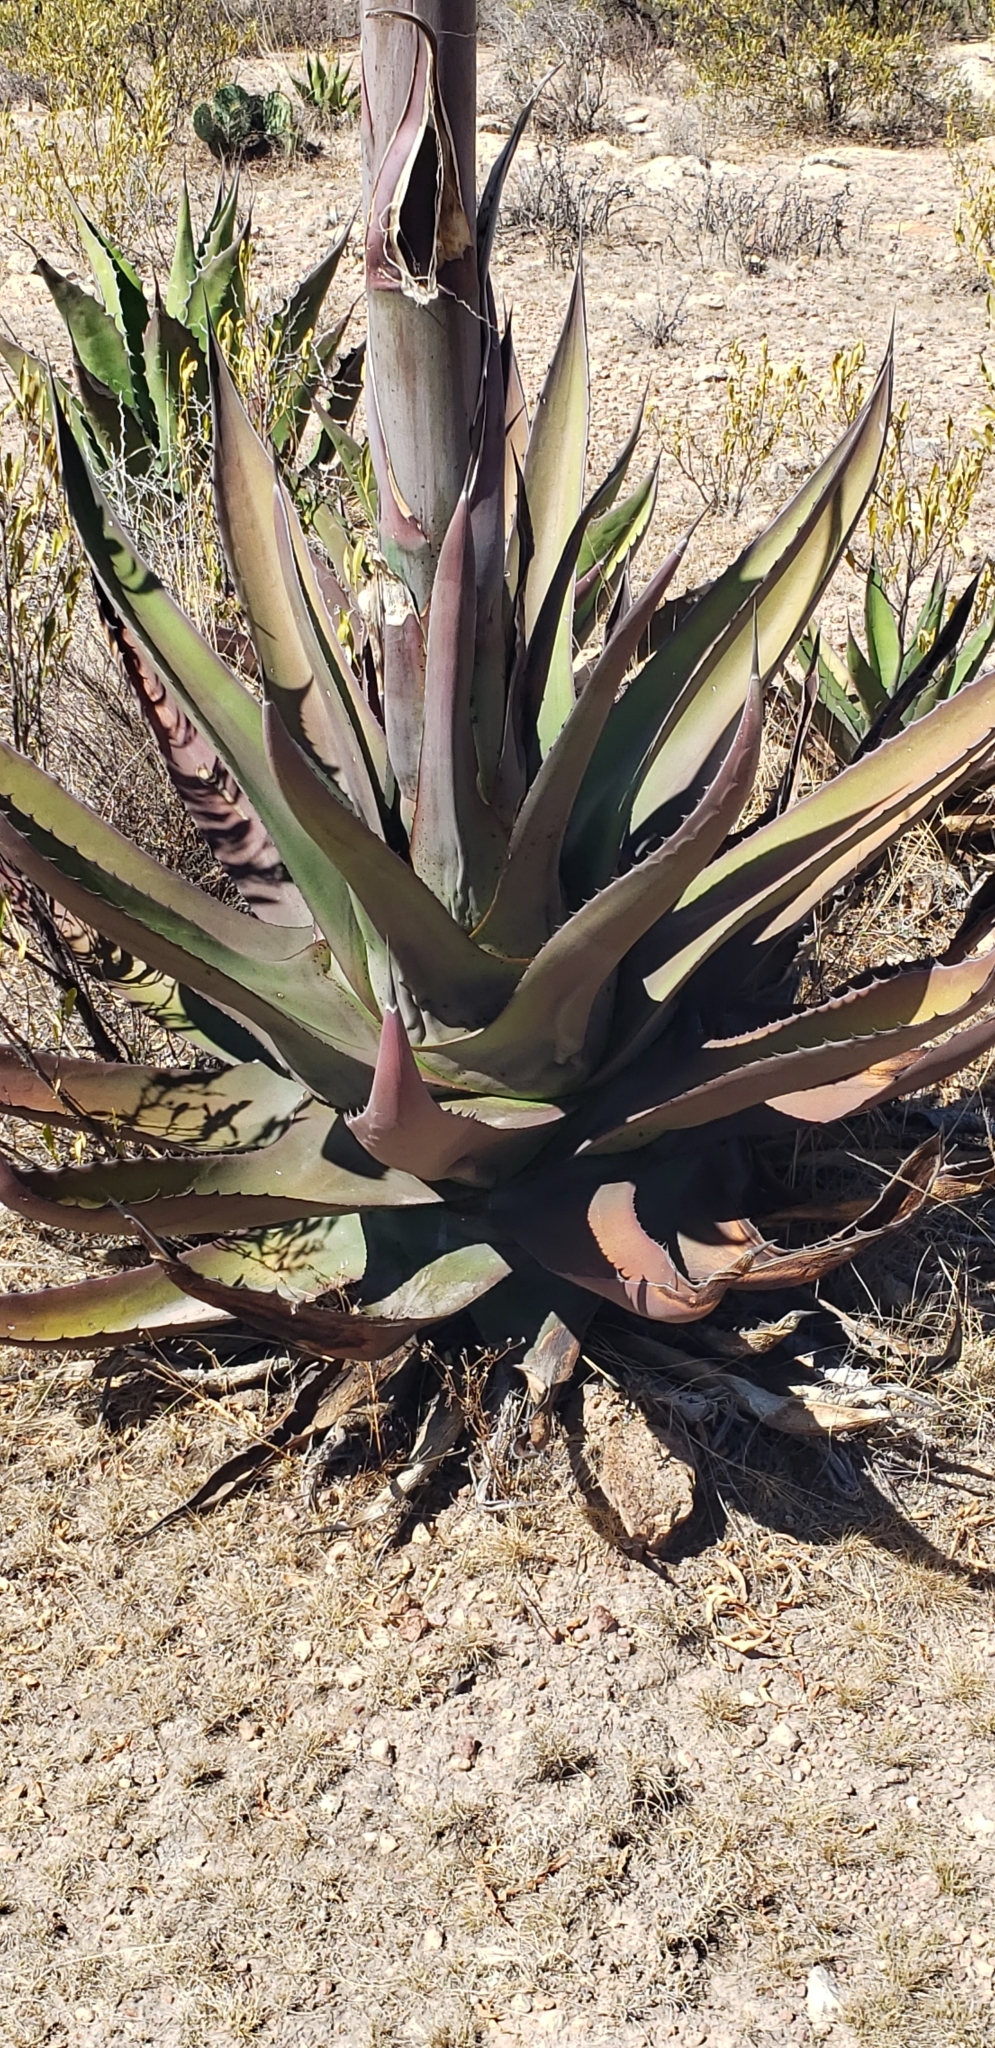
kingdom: Plantae
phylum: Tracheophyta
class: Liliopsida
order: Asparagales
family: Asparagaceae
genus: Agave
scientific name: Agave salmiana
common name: Pulque agave
